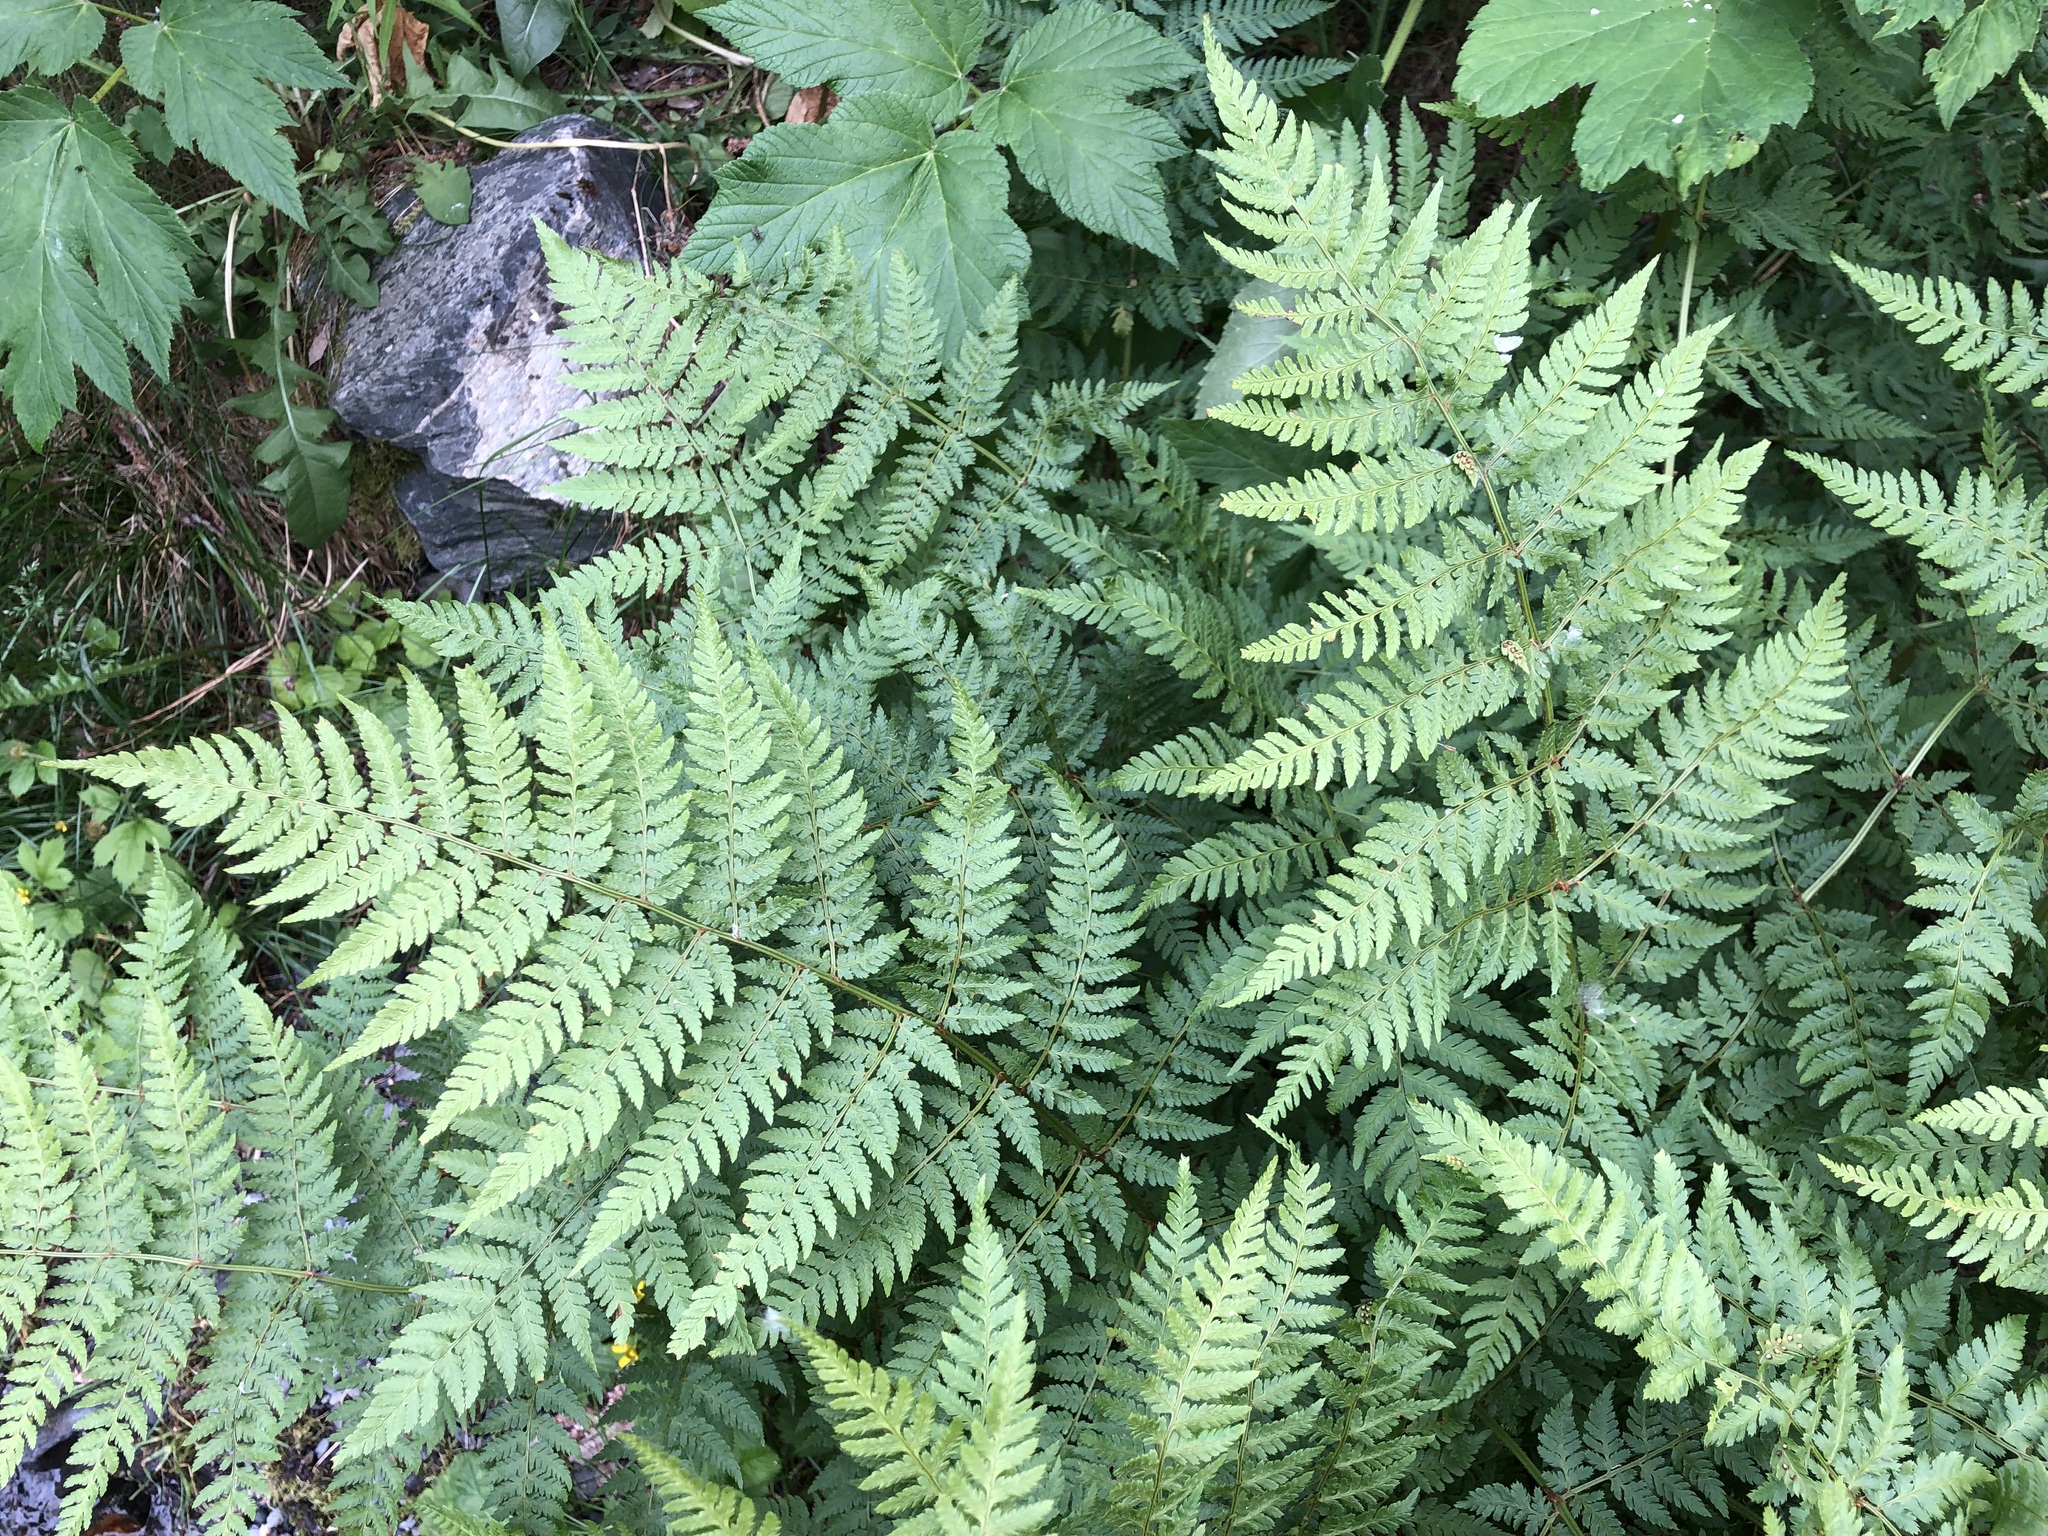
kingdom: Plantae
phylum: Tracheophyta
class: Polypodiopsida
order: Polypodiales
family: Dryopteridaceae
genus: Dryopteris
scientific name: Dryopteris expansa
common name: Northern buckler fern
